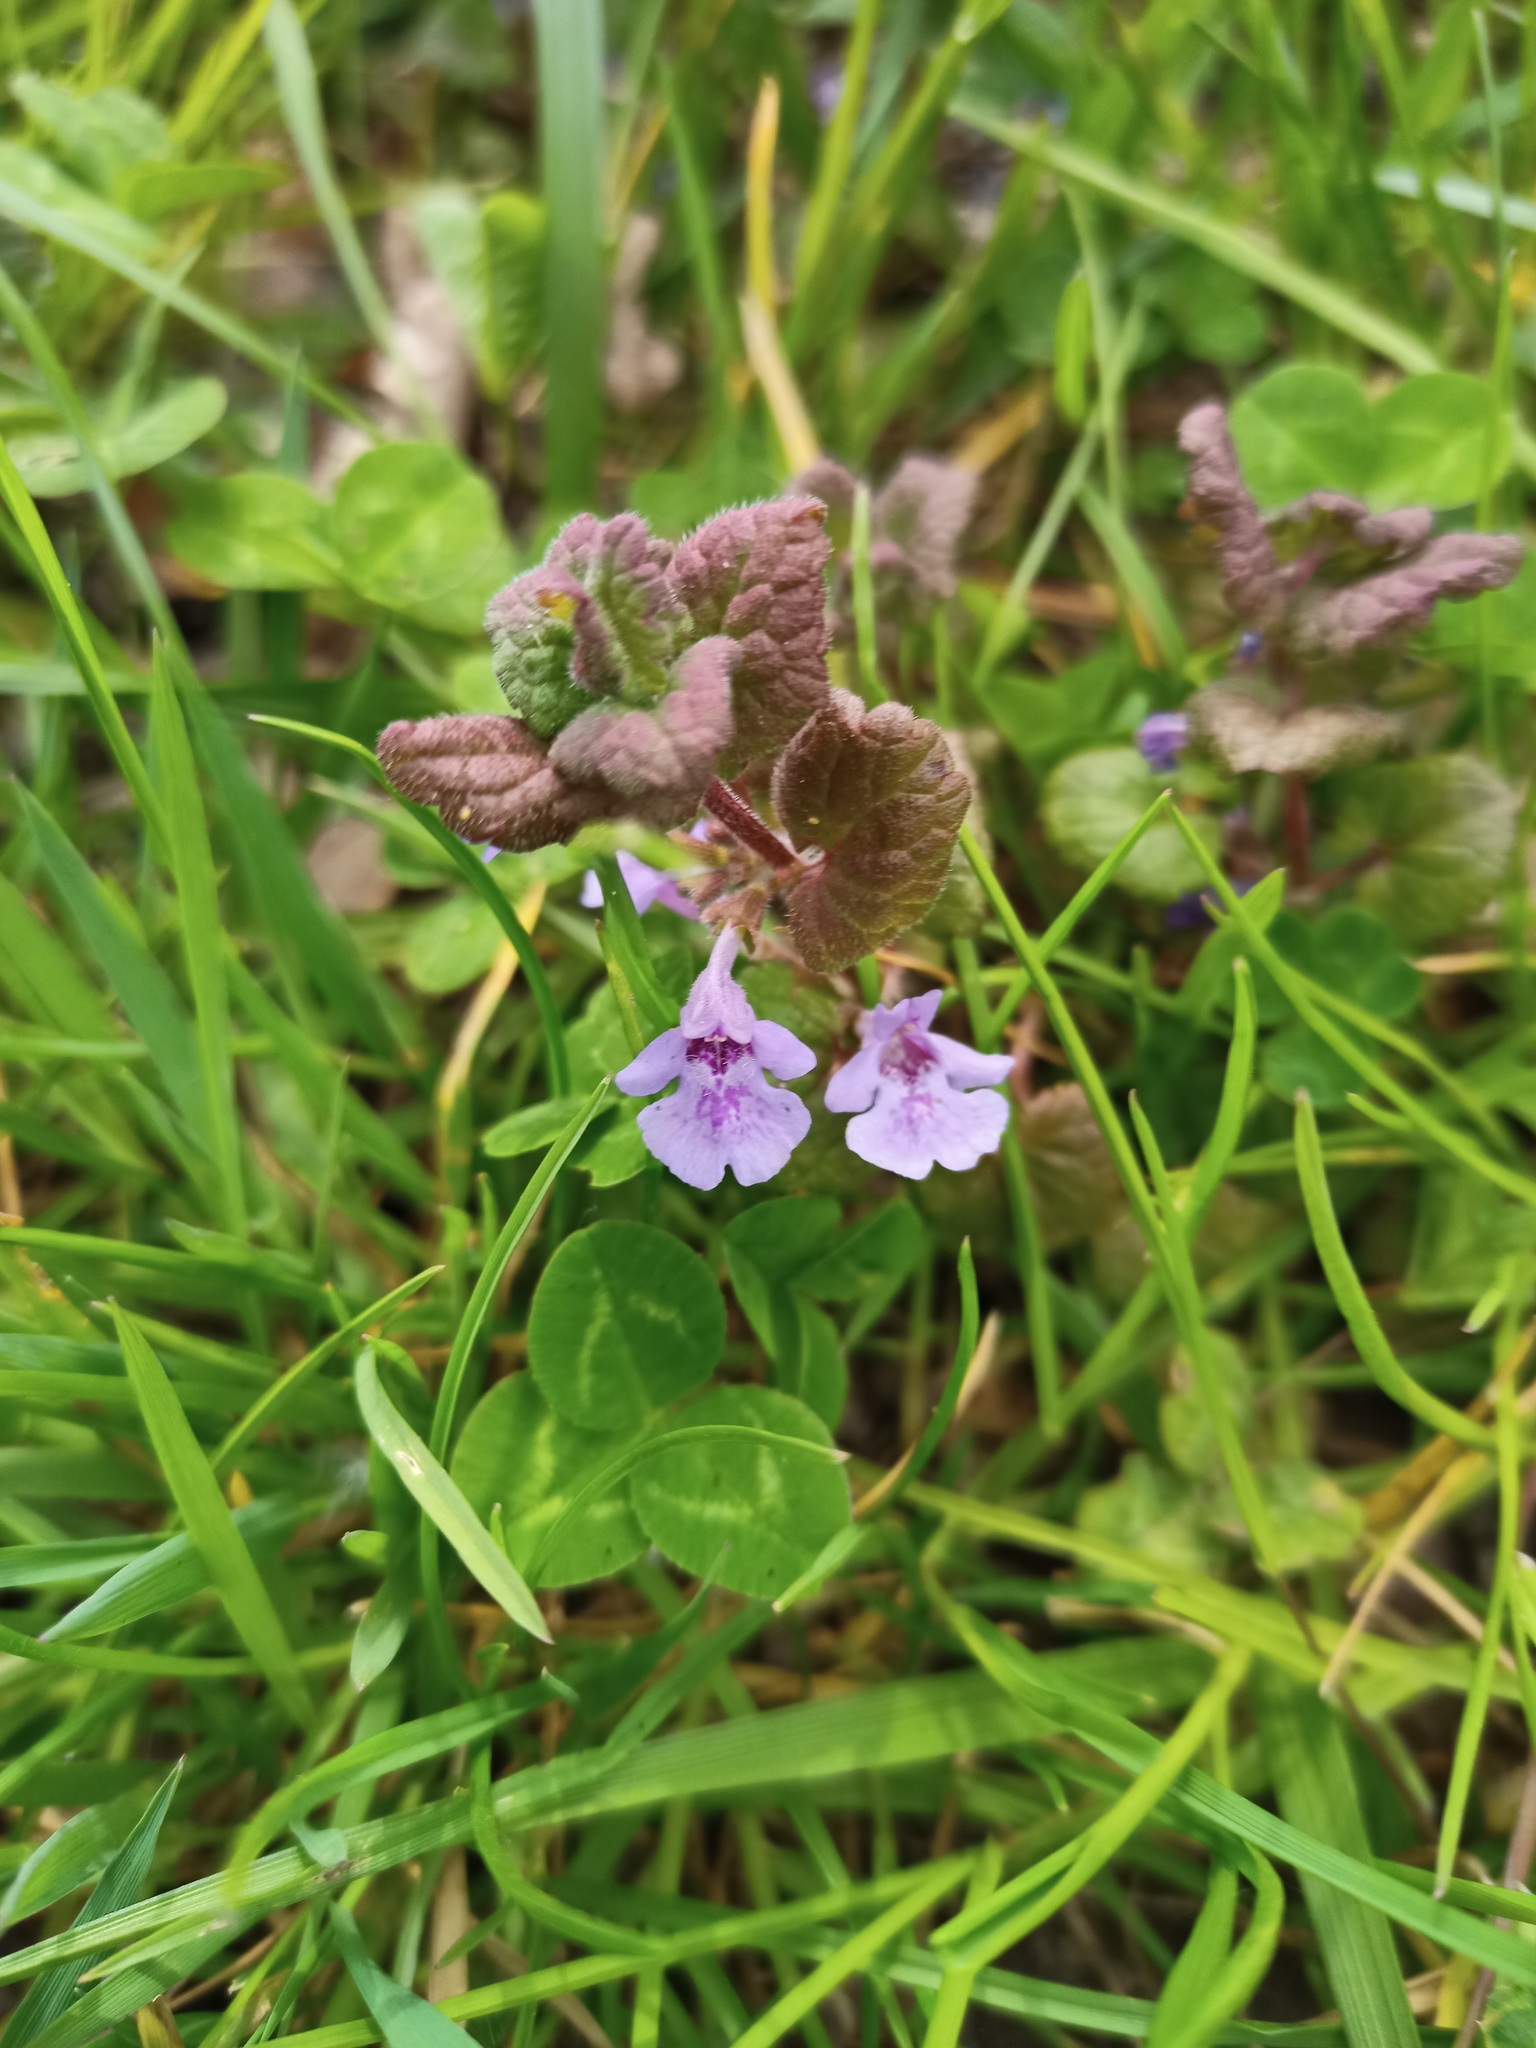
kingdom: Plantae
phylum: Tracheophyta
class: Magnoliopsida
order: Lamiales
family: Lamiaceae
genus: Glechoma
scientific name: Glechoma hederacea
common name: Ground ivy
